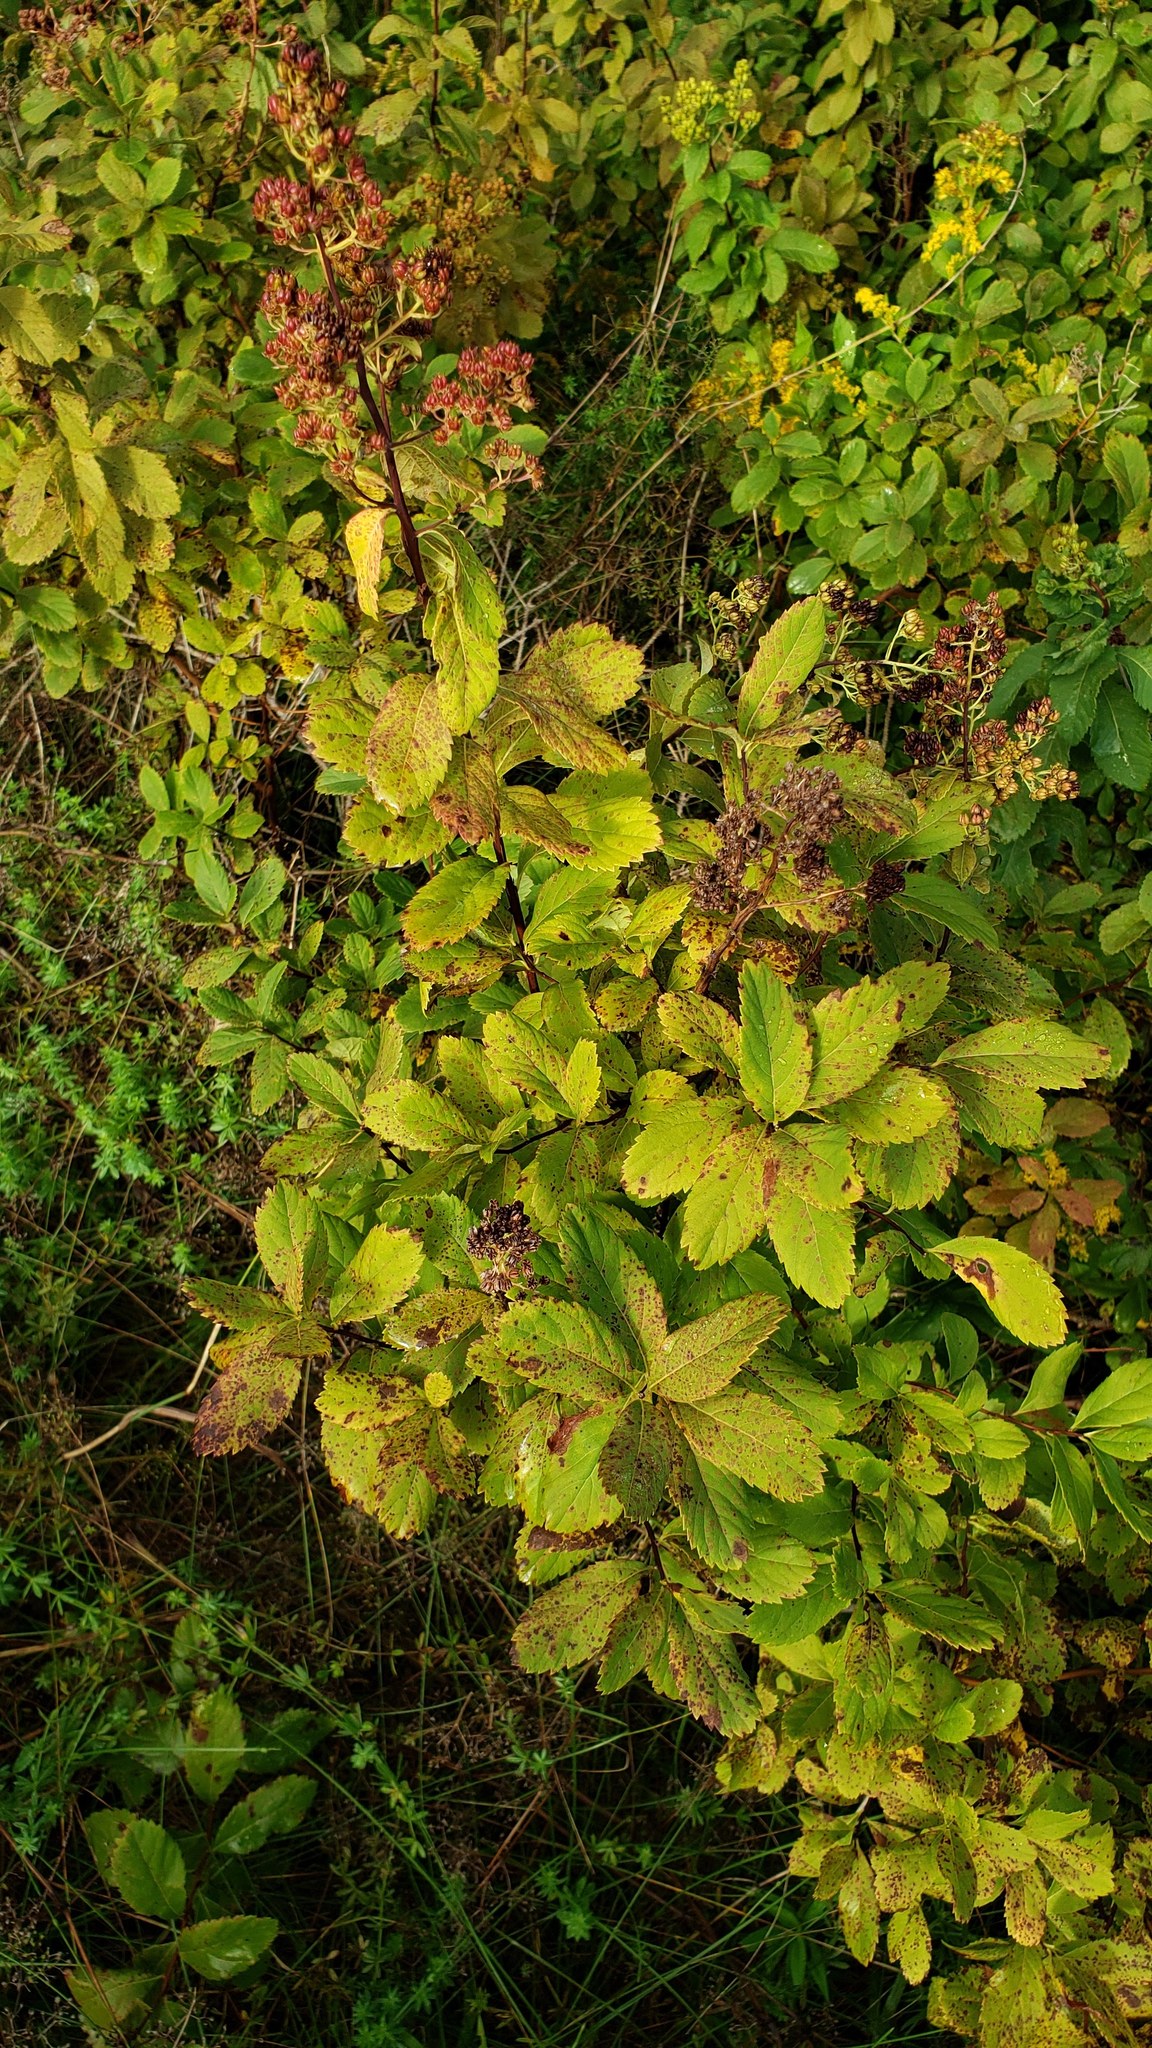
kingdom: Plantae
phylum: Tracheophyta
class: Magnoliopsida
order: Rosales
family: Rosaceae
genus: Spiraea
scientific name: Spiraea alba
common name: Pale bridewort
